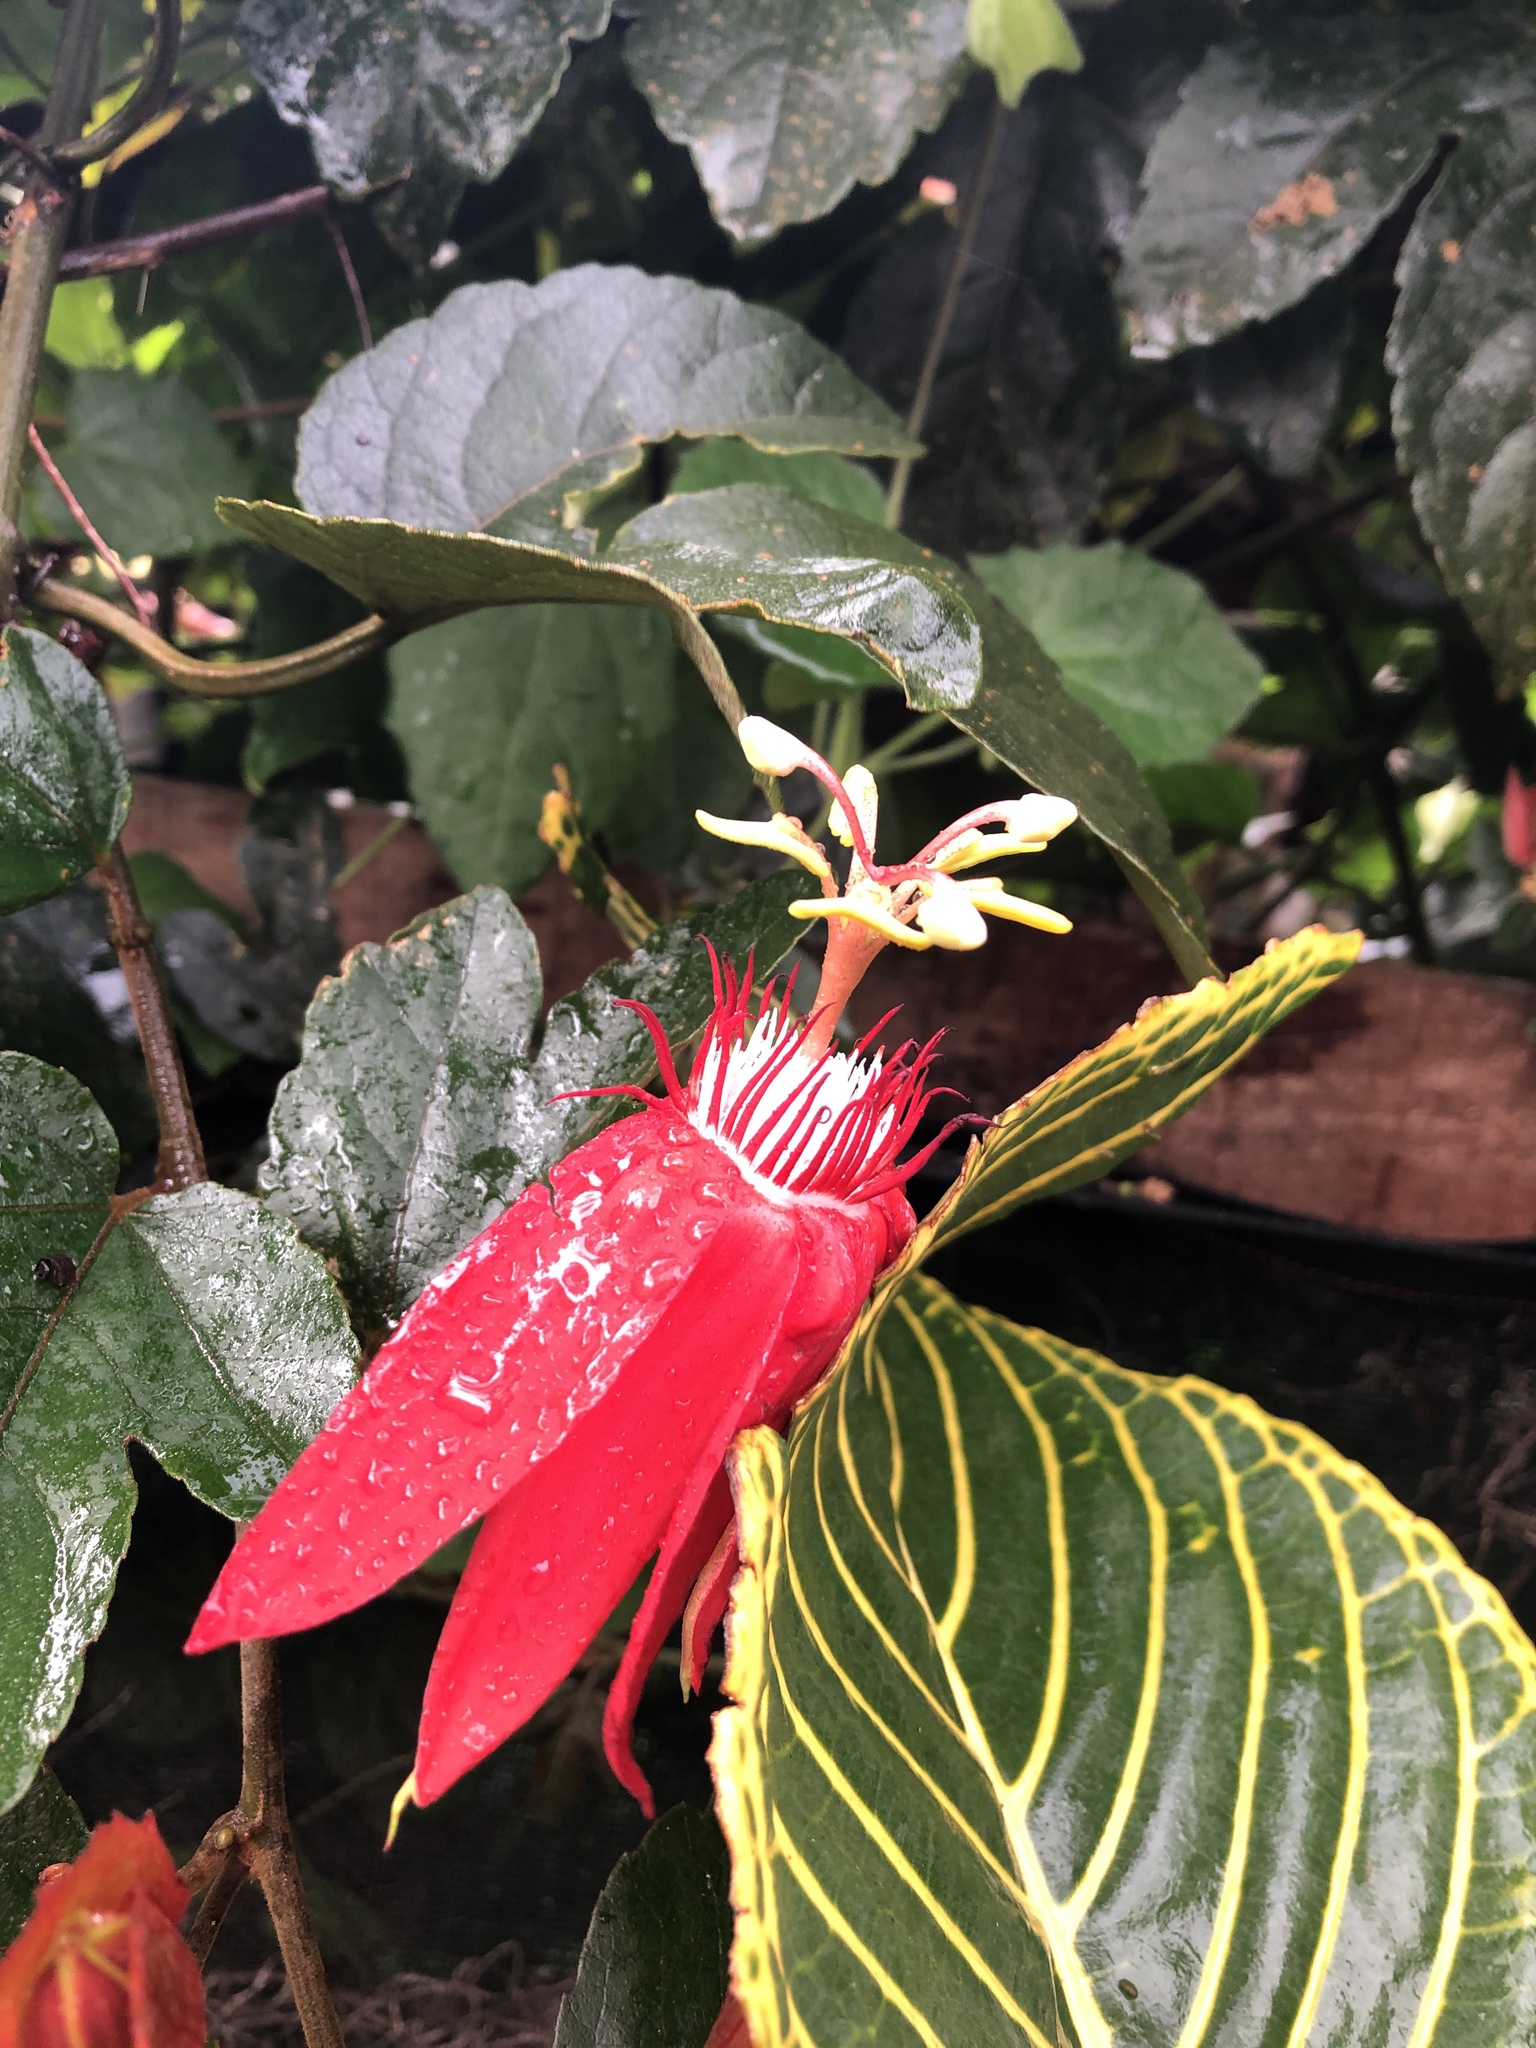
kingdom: Plantae
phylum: Tracheophyta
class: Magnoliopsida
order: Malpighiales
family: Passifloraceae
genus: Passiflora
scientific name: Passiflora vitifolia
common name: Perfumed passionflower
